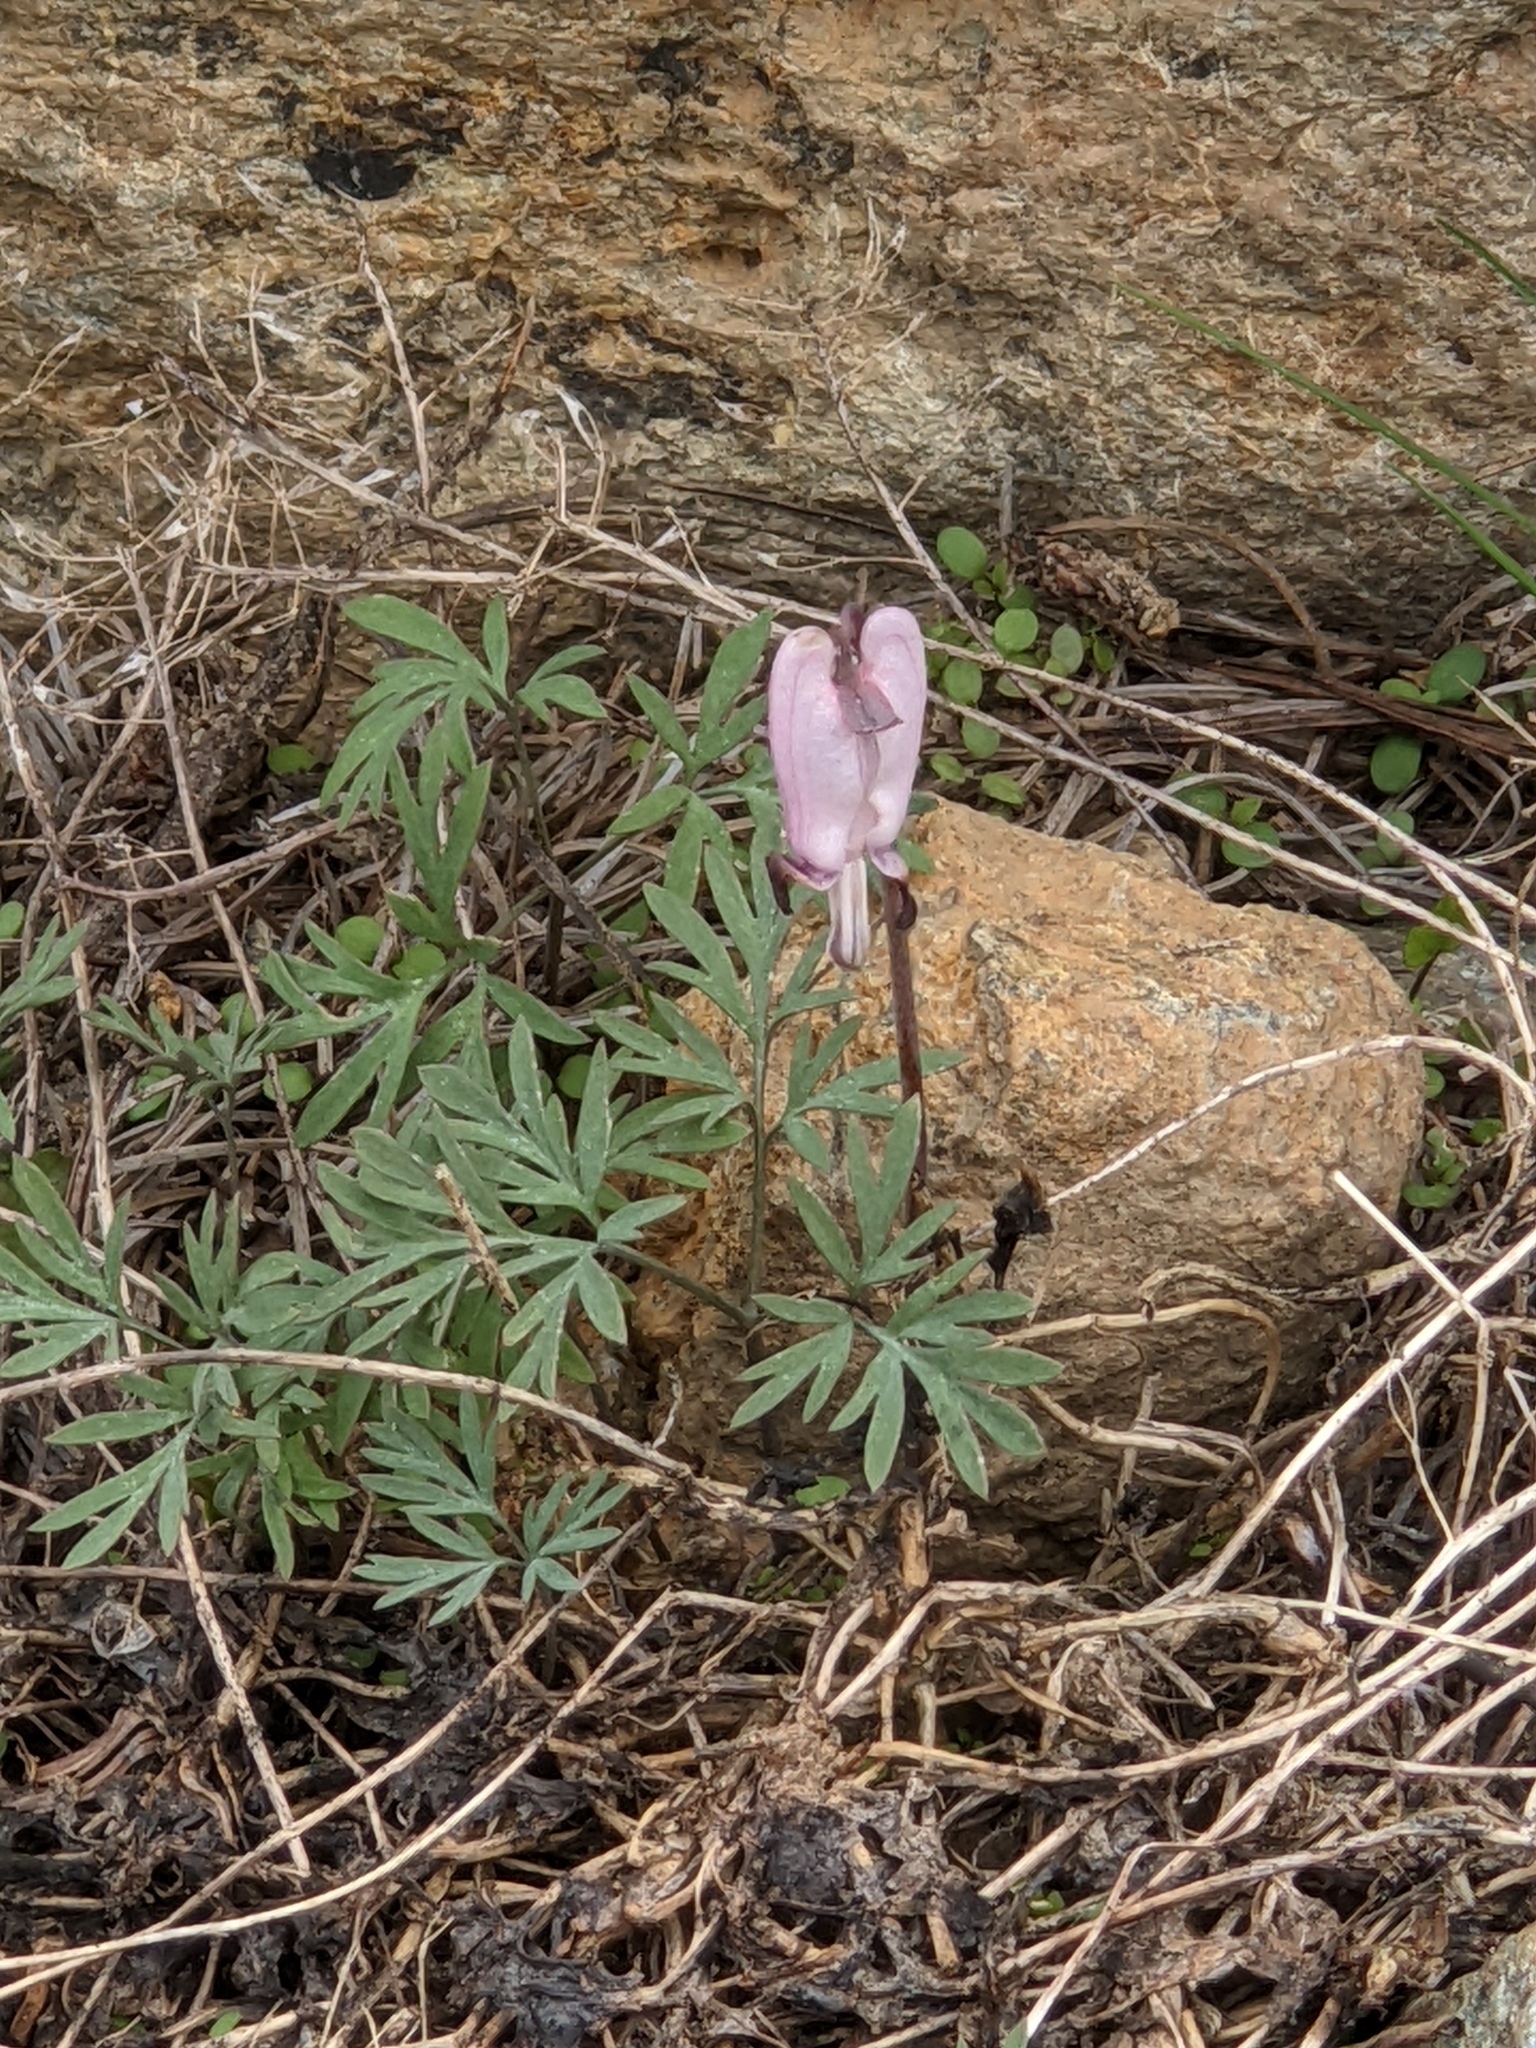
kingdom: Plantae
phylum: Tracheophyta
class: Magnoliopsida
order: Ranunculales
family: Papaveraceae
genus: Dicentra
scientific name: Dicentra pauciflora
